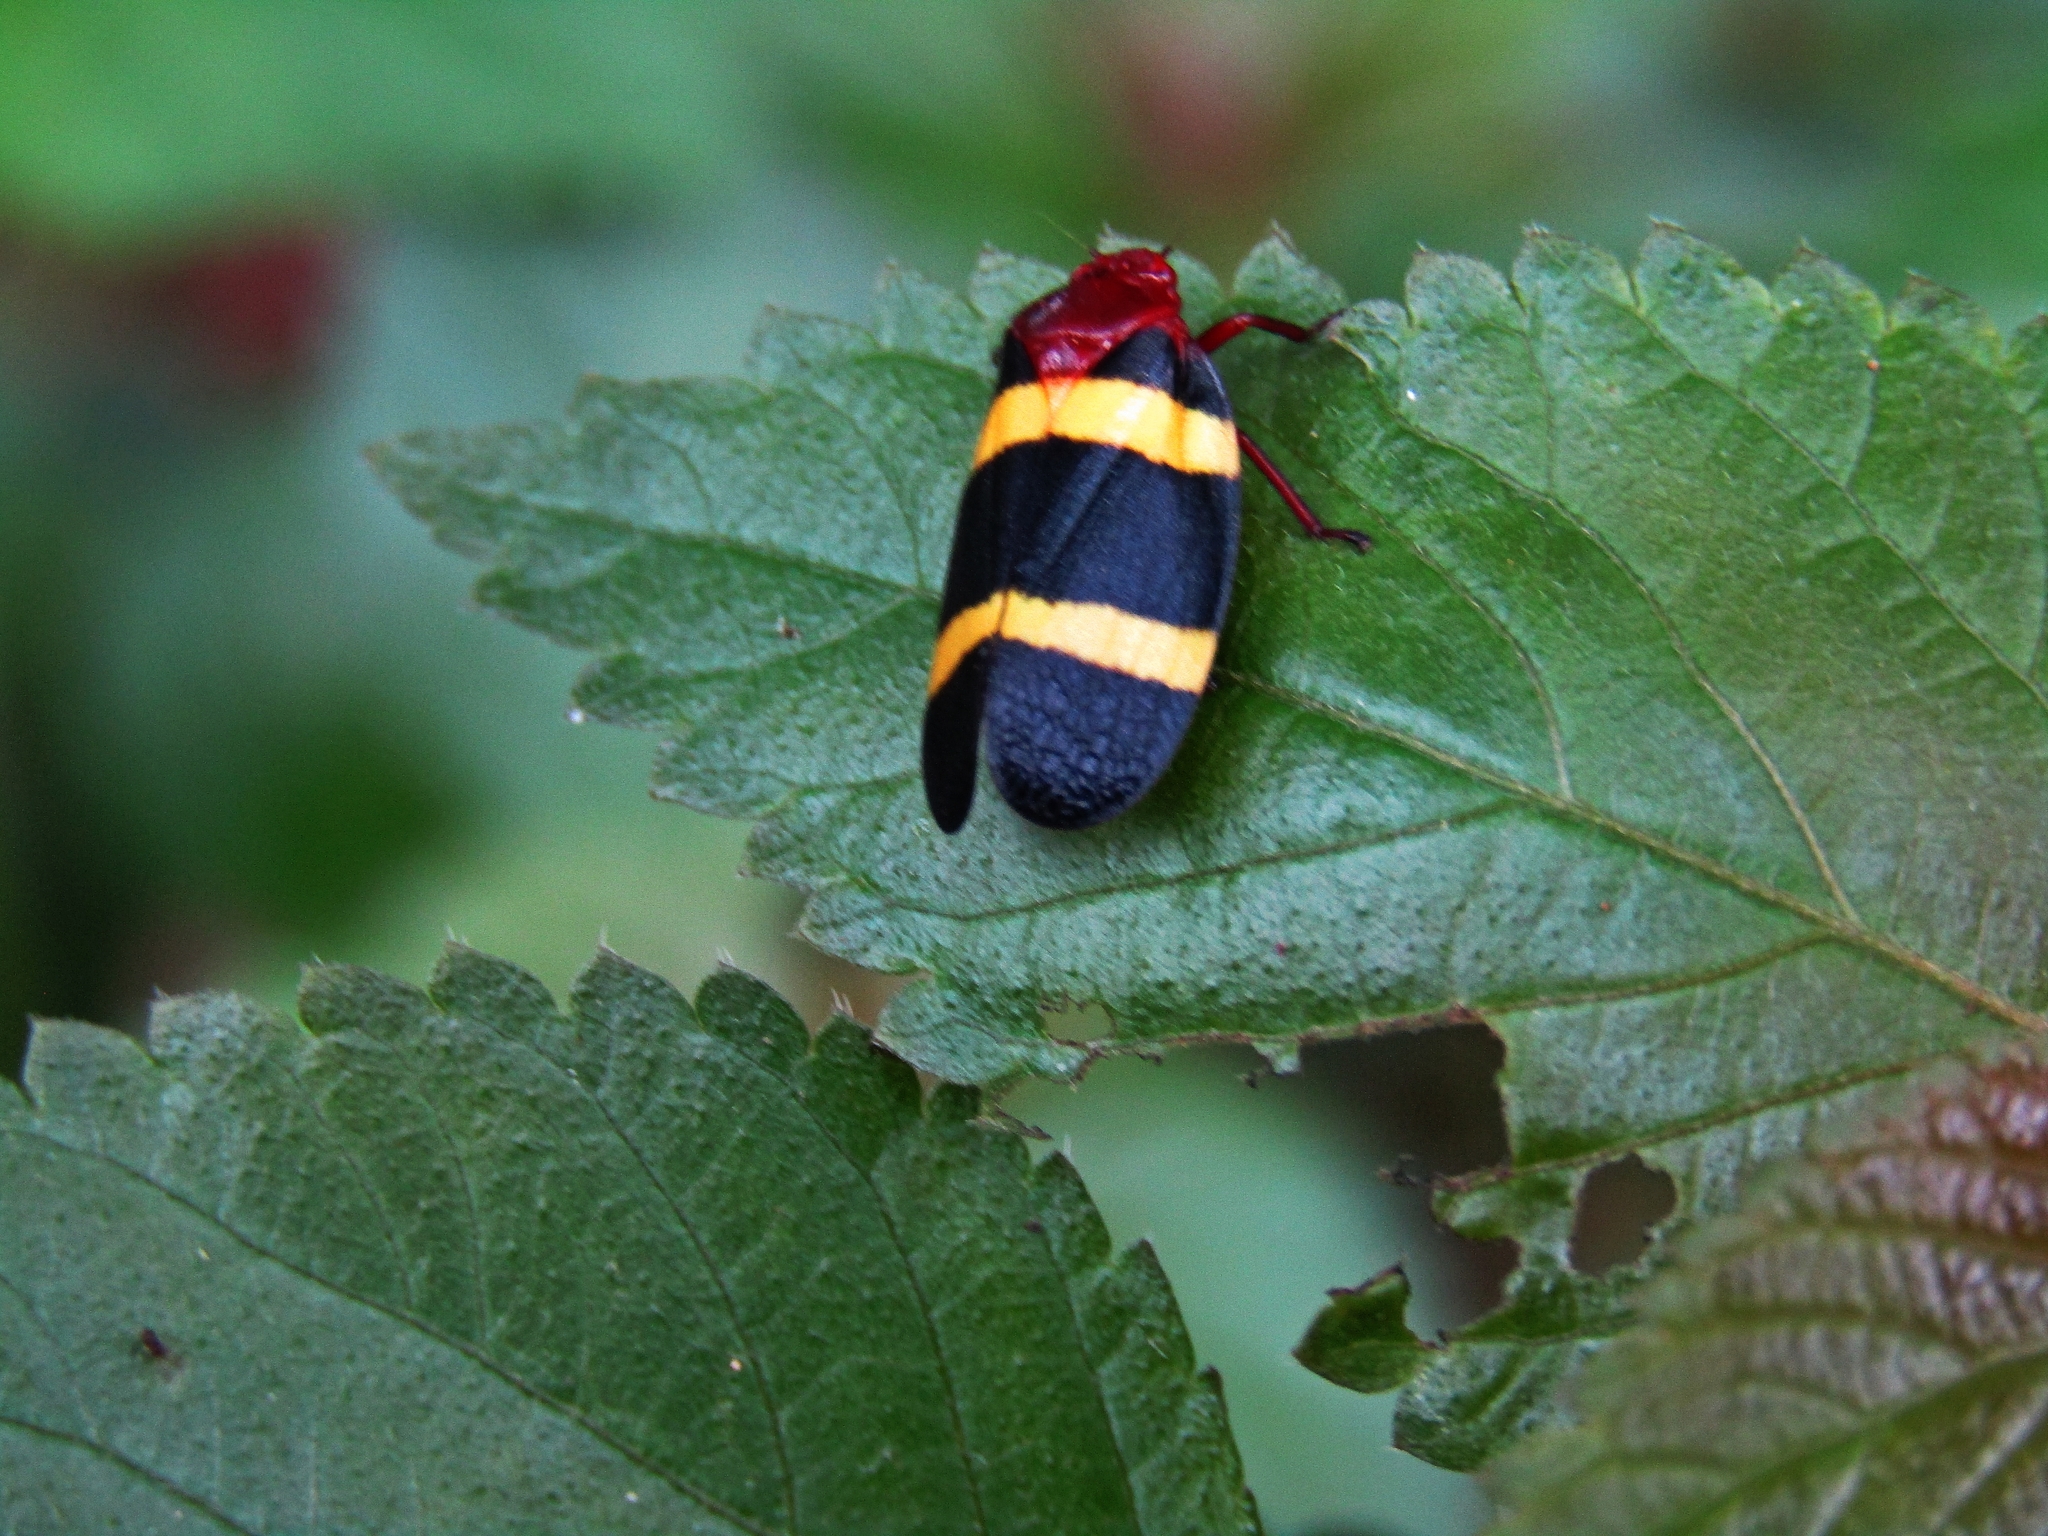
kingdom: Animalia
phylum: Arthropoda
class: Insecta
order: Hemiptera
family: Cercopidae
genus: Sphenorhina
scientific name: Sphenorhina rubra
